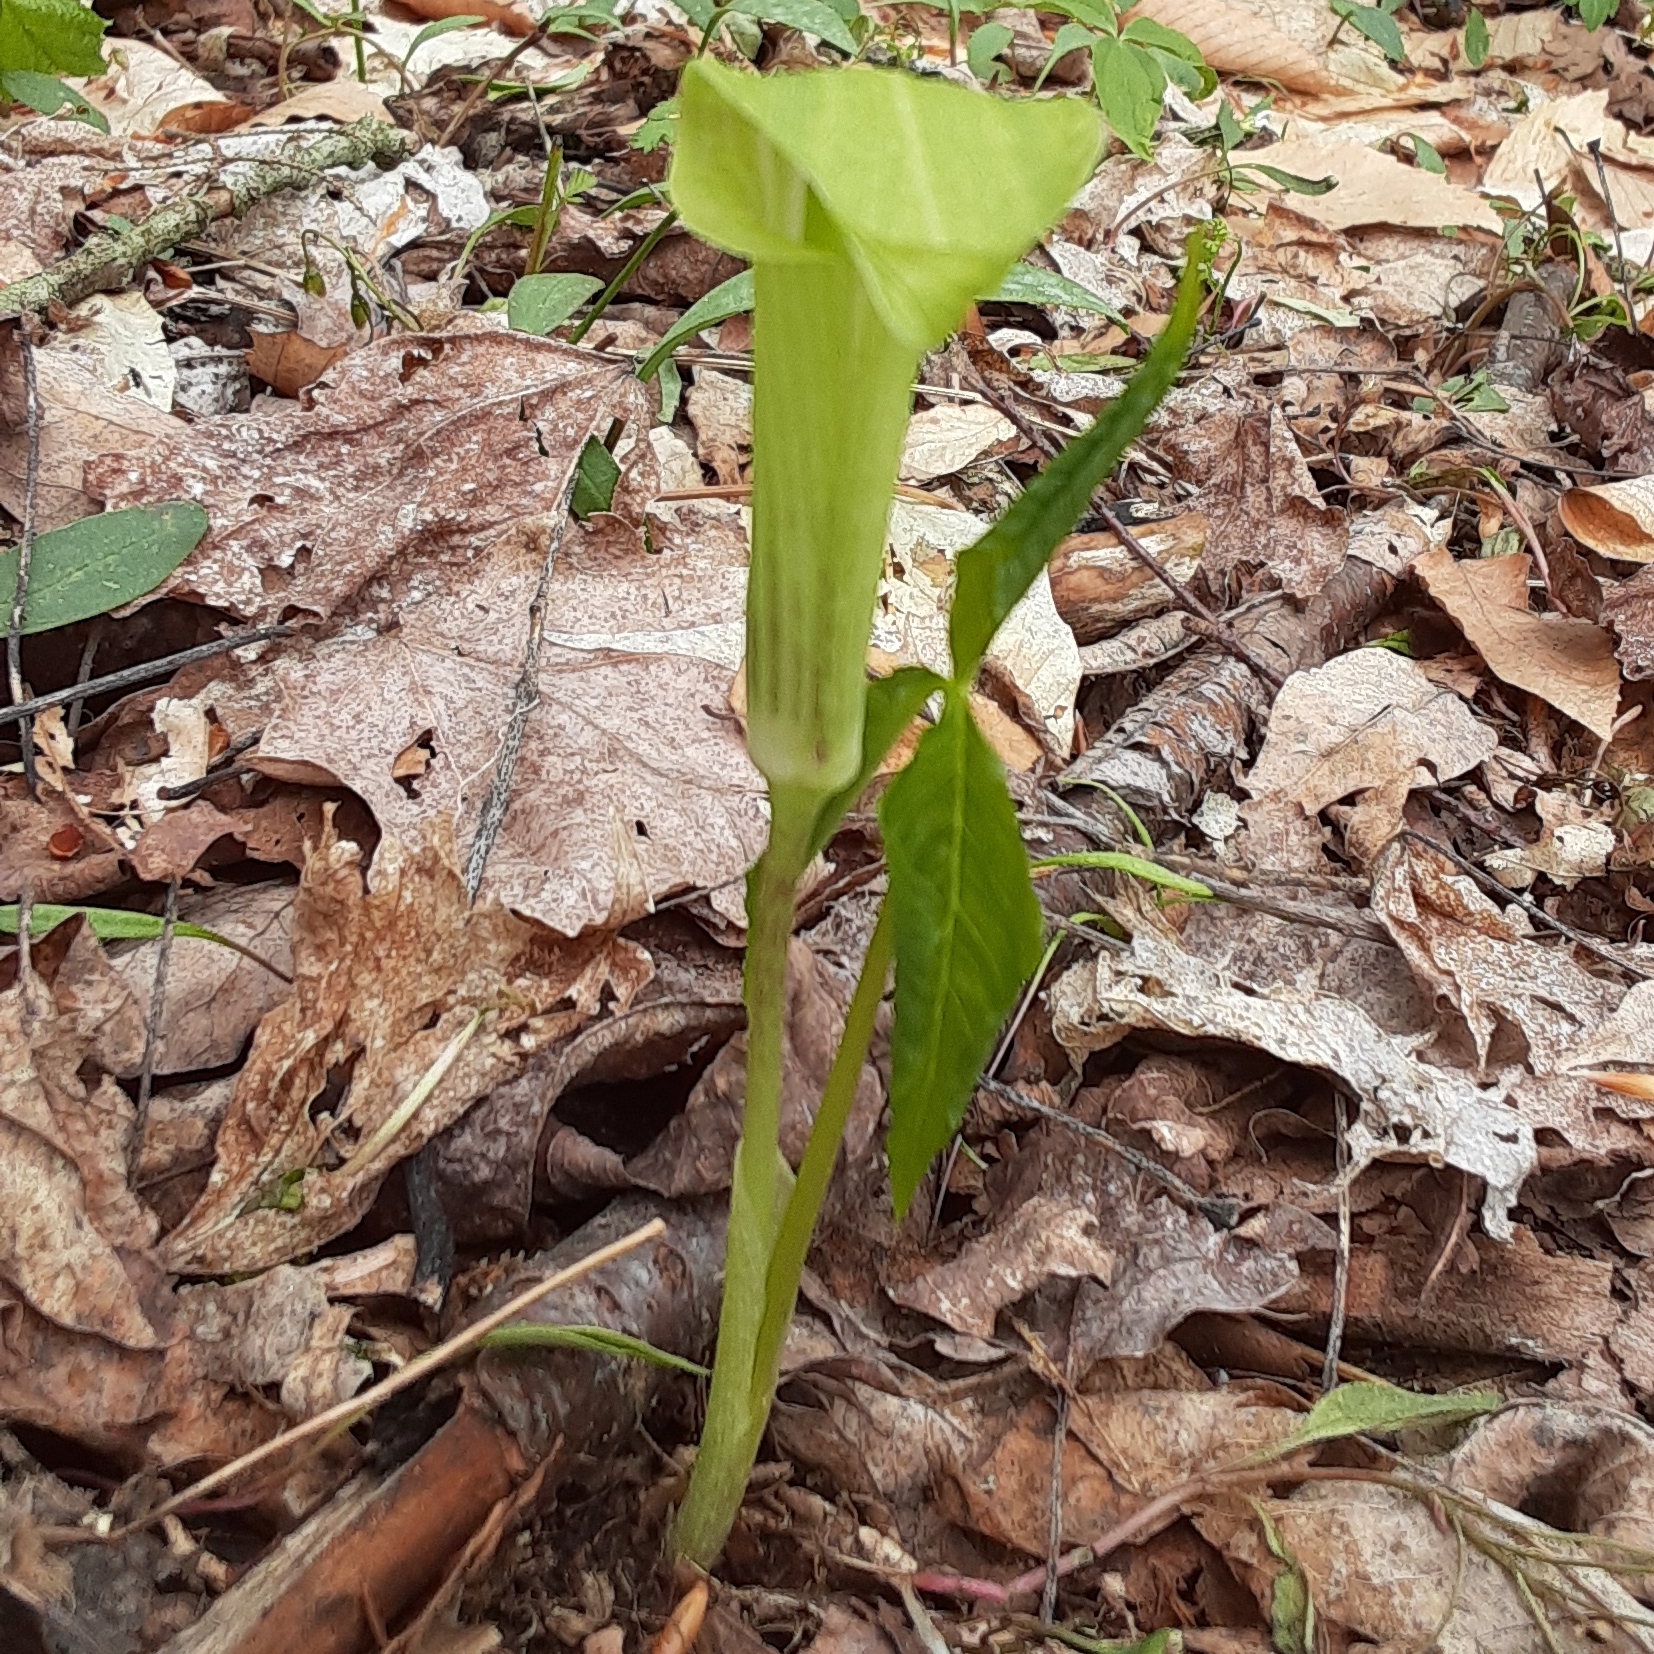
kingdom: Plantae
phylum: Tracheophyta
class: Liliopsida
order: Alismatales
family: Araceae
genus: Arisaema
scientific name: Arisaema triphyllum
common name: Jack-in-the-pulpit
